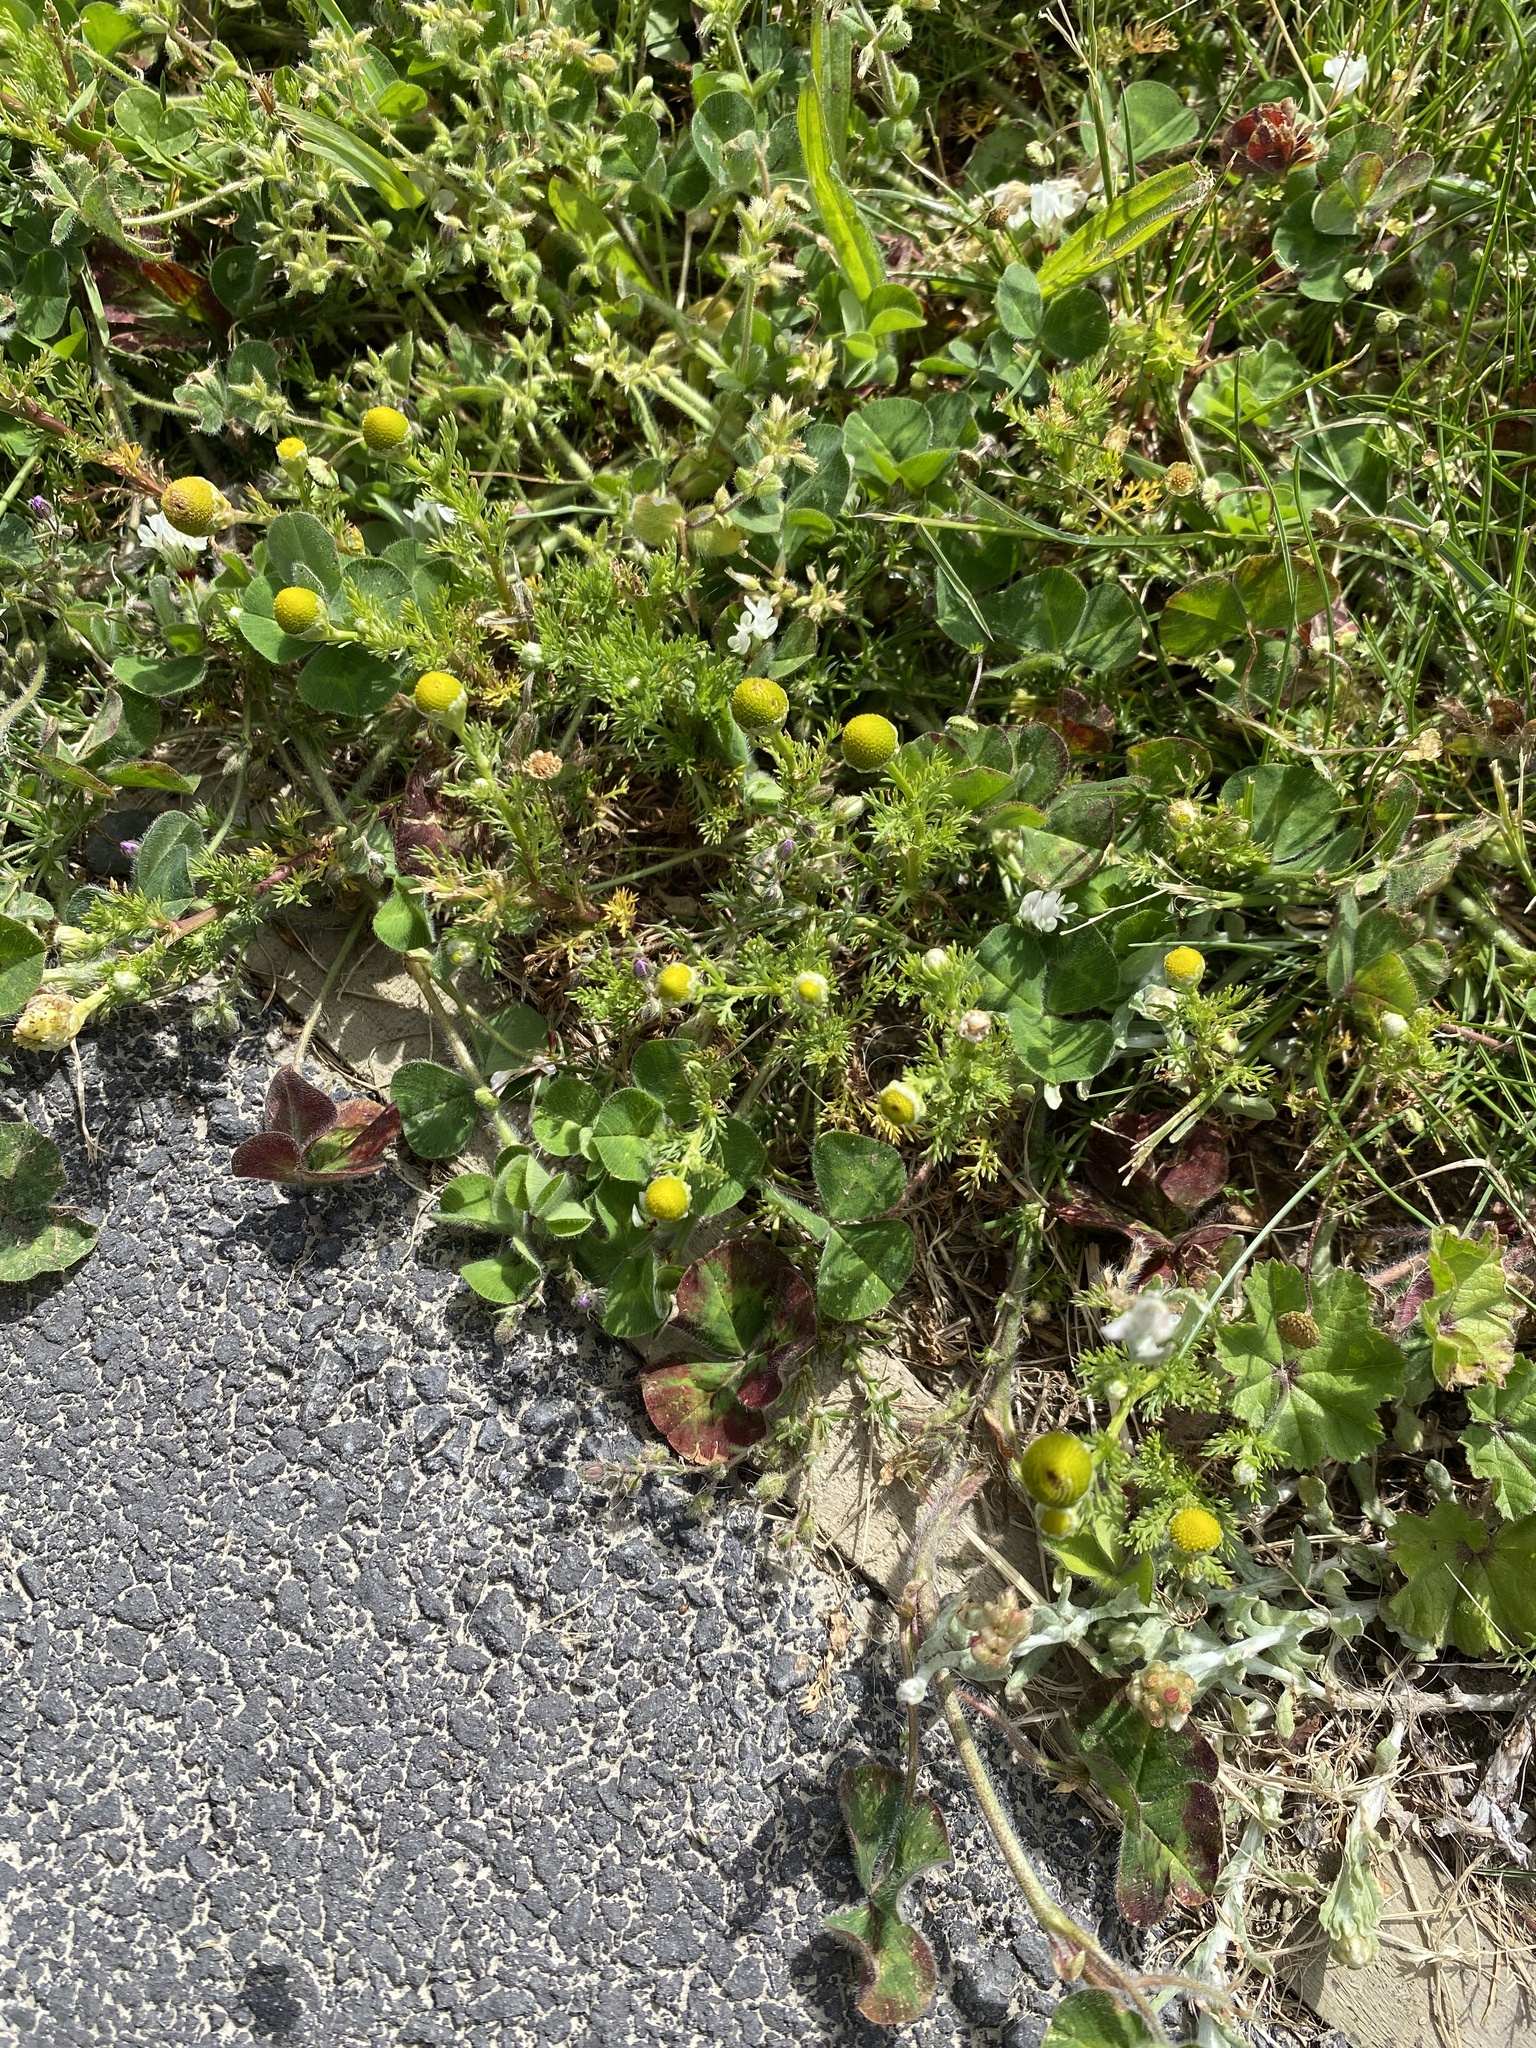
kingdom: Plantae
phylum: Tracheophyta
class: Magnoliopsida
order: Asterales
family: Asteraceae
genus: Matricaria
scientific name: Matricaria discoidea
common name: Disc mayweed
